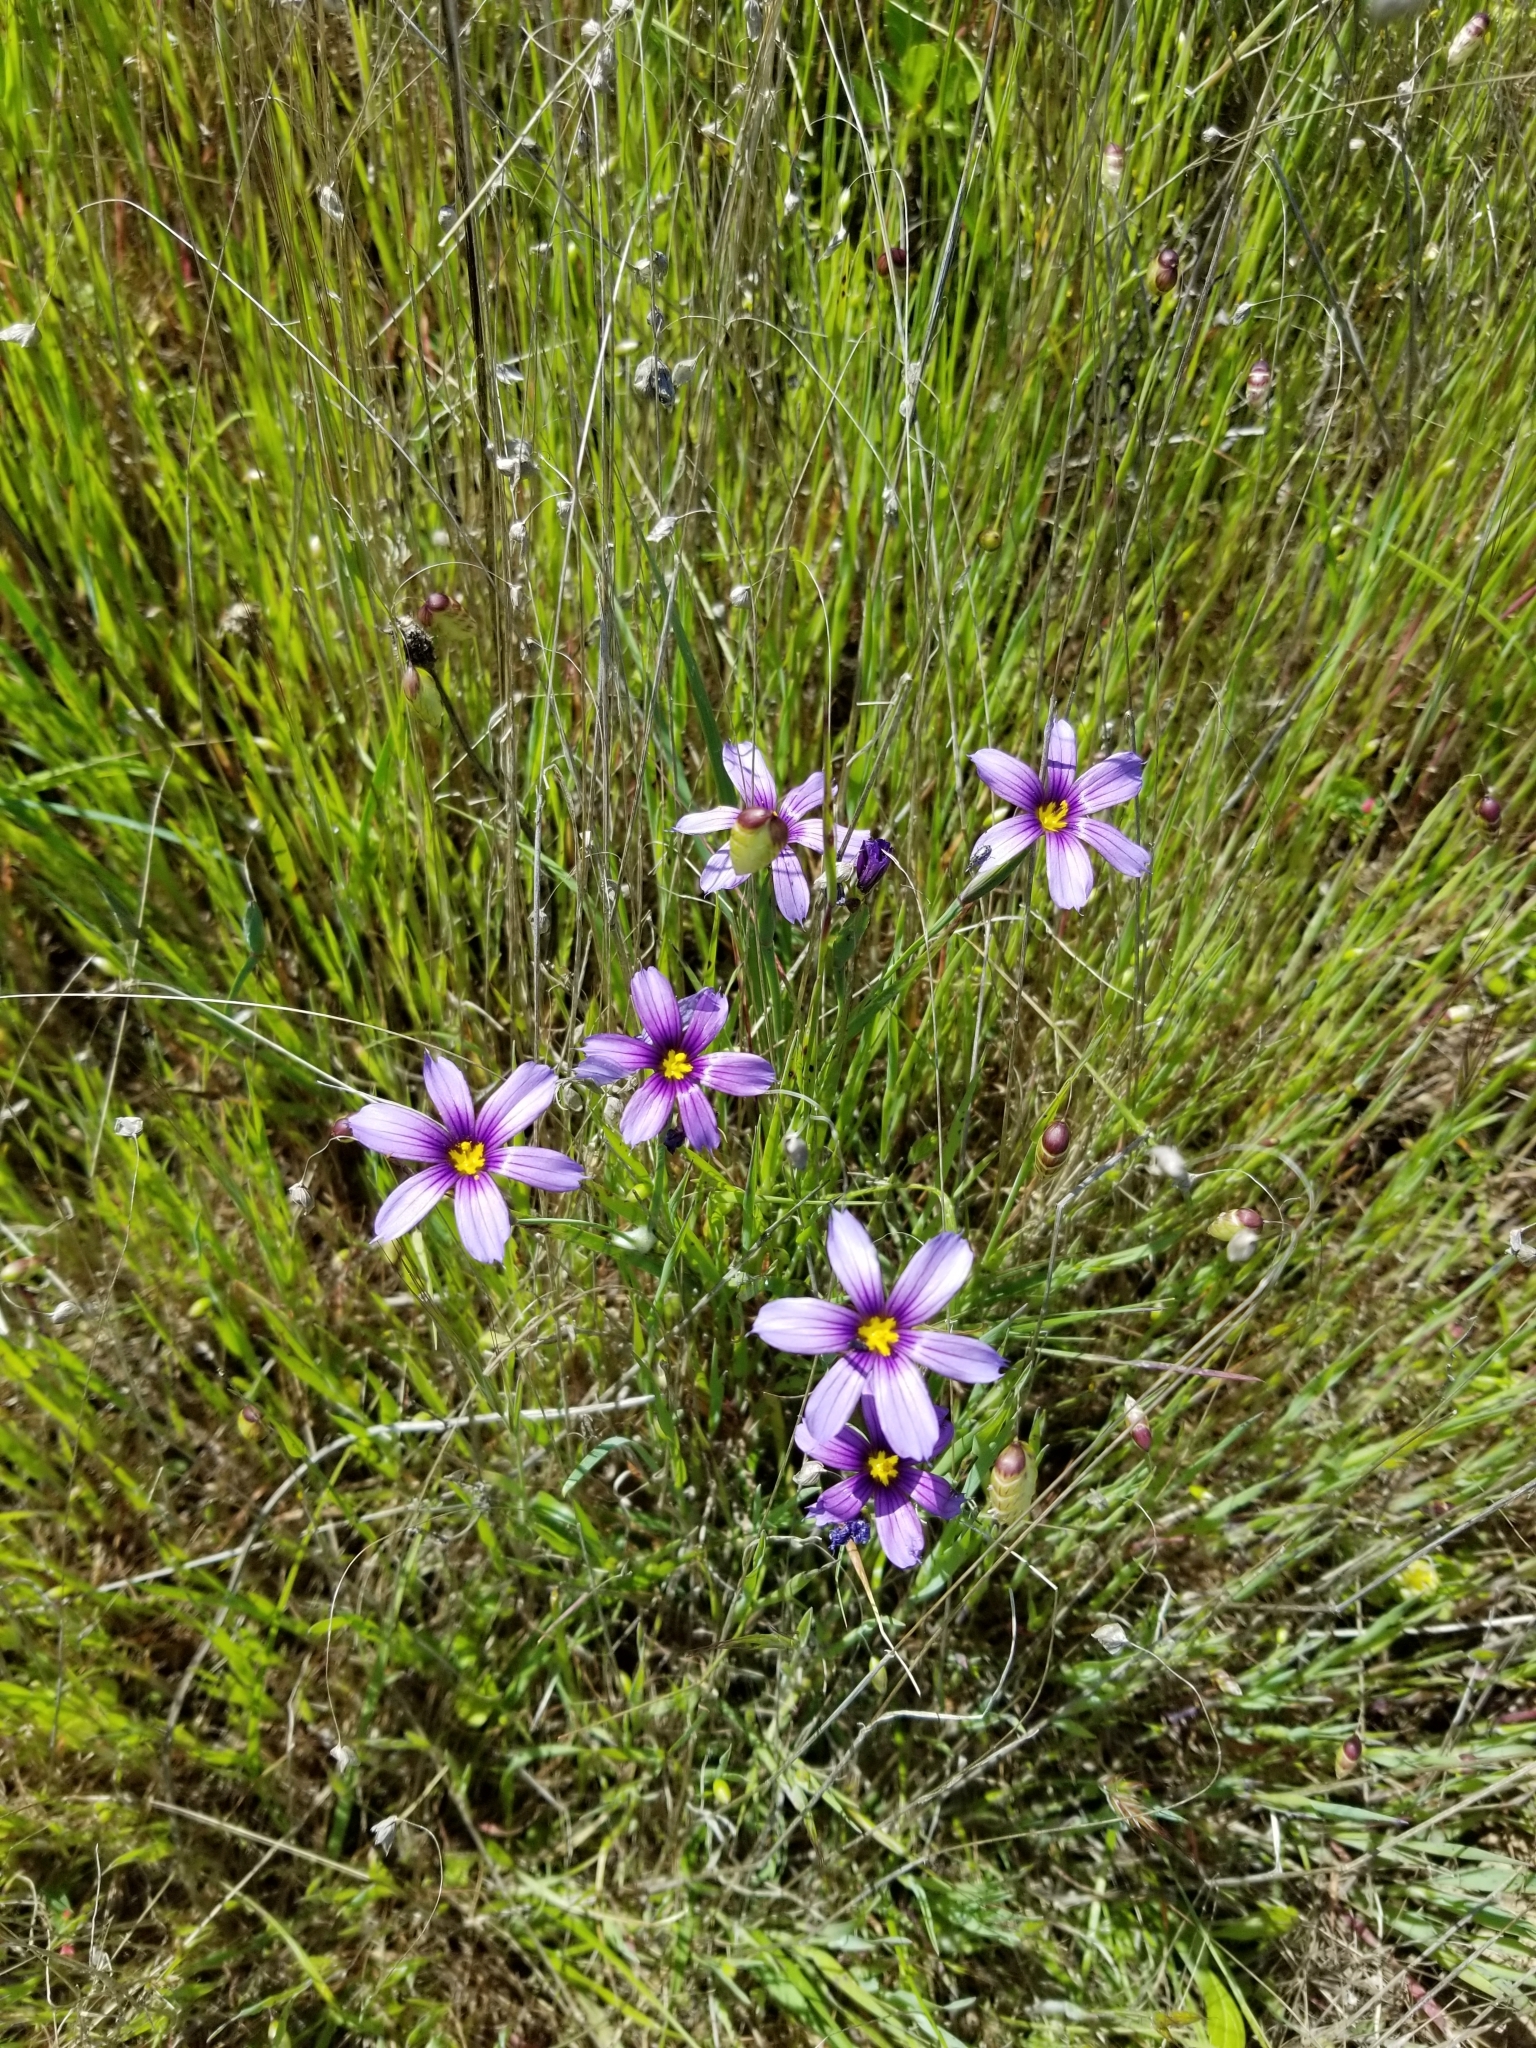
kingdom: Plantae
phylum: Tracheophyta
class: Liliopsida
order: Asparagales
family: Iridaceae
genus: Sisyrinchium
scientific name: Sisyrinchium bellum
